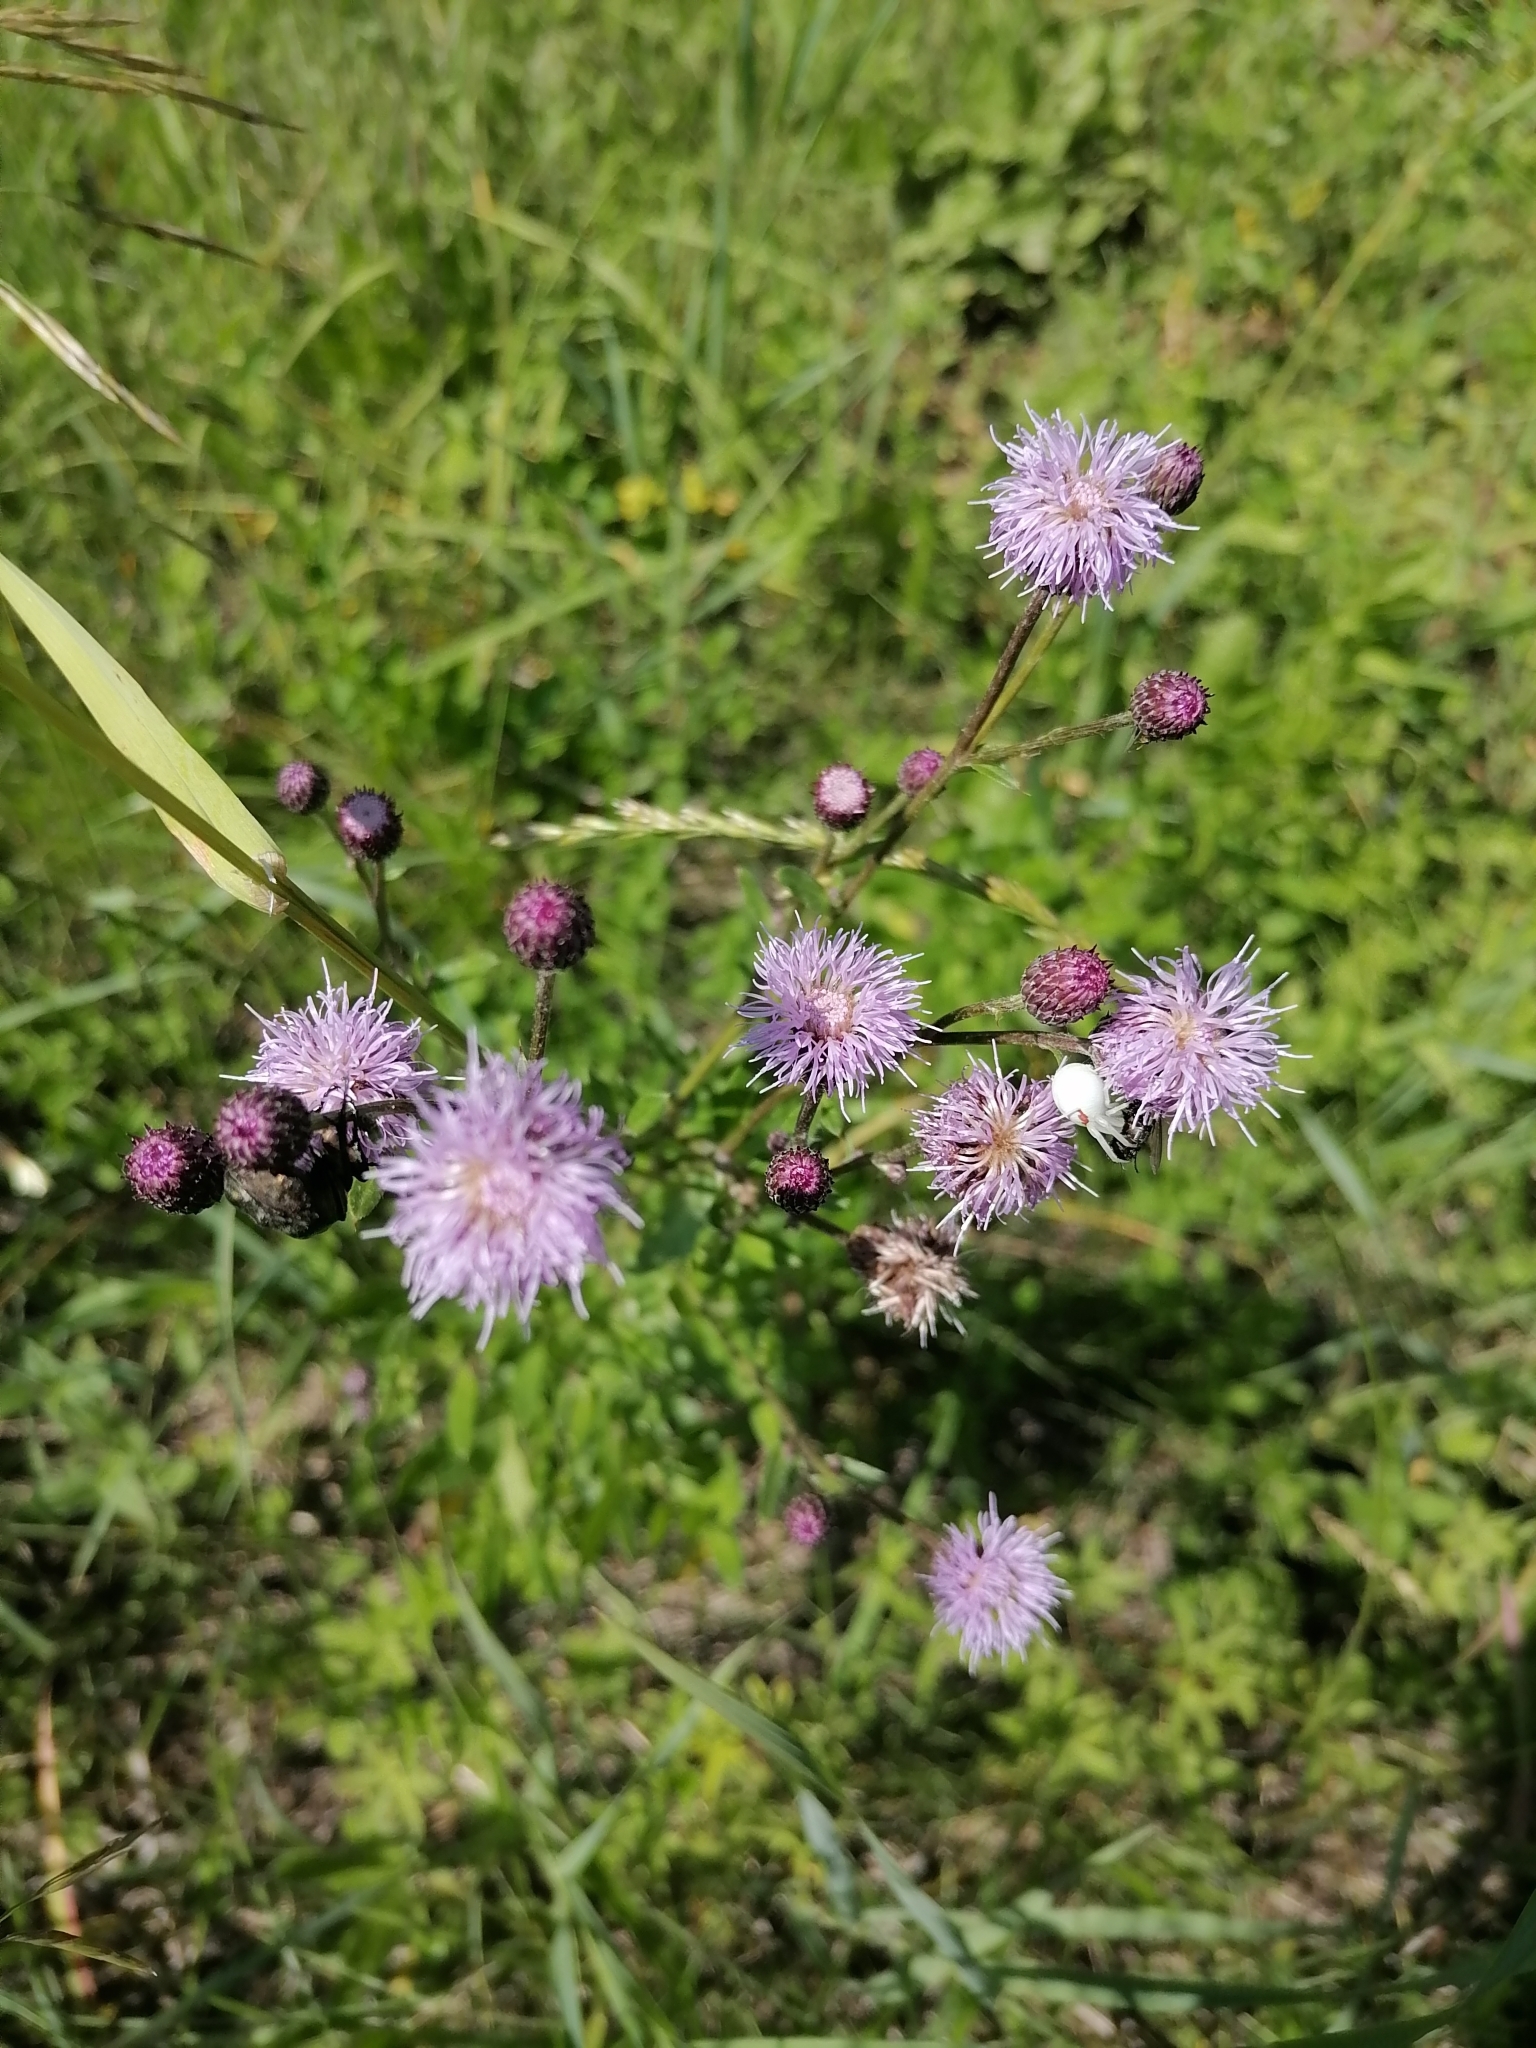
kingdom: Plantae
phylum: Tracheophyta
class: Magnoliopsida
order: Asterales
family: Asteraceae
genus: Cirsium
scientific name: Cirsium arvense
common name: Creeping thistle
